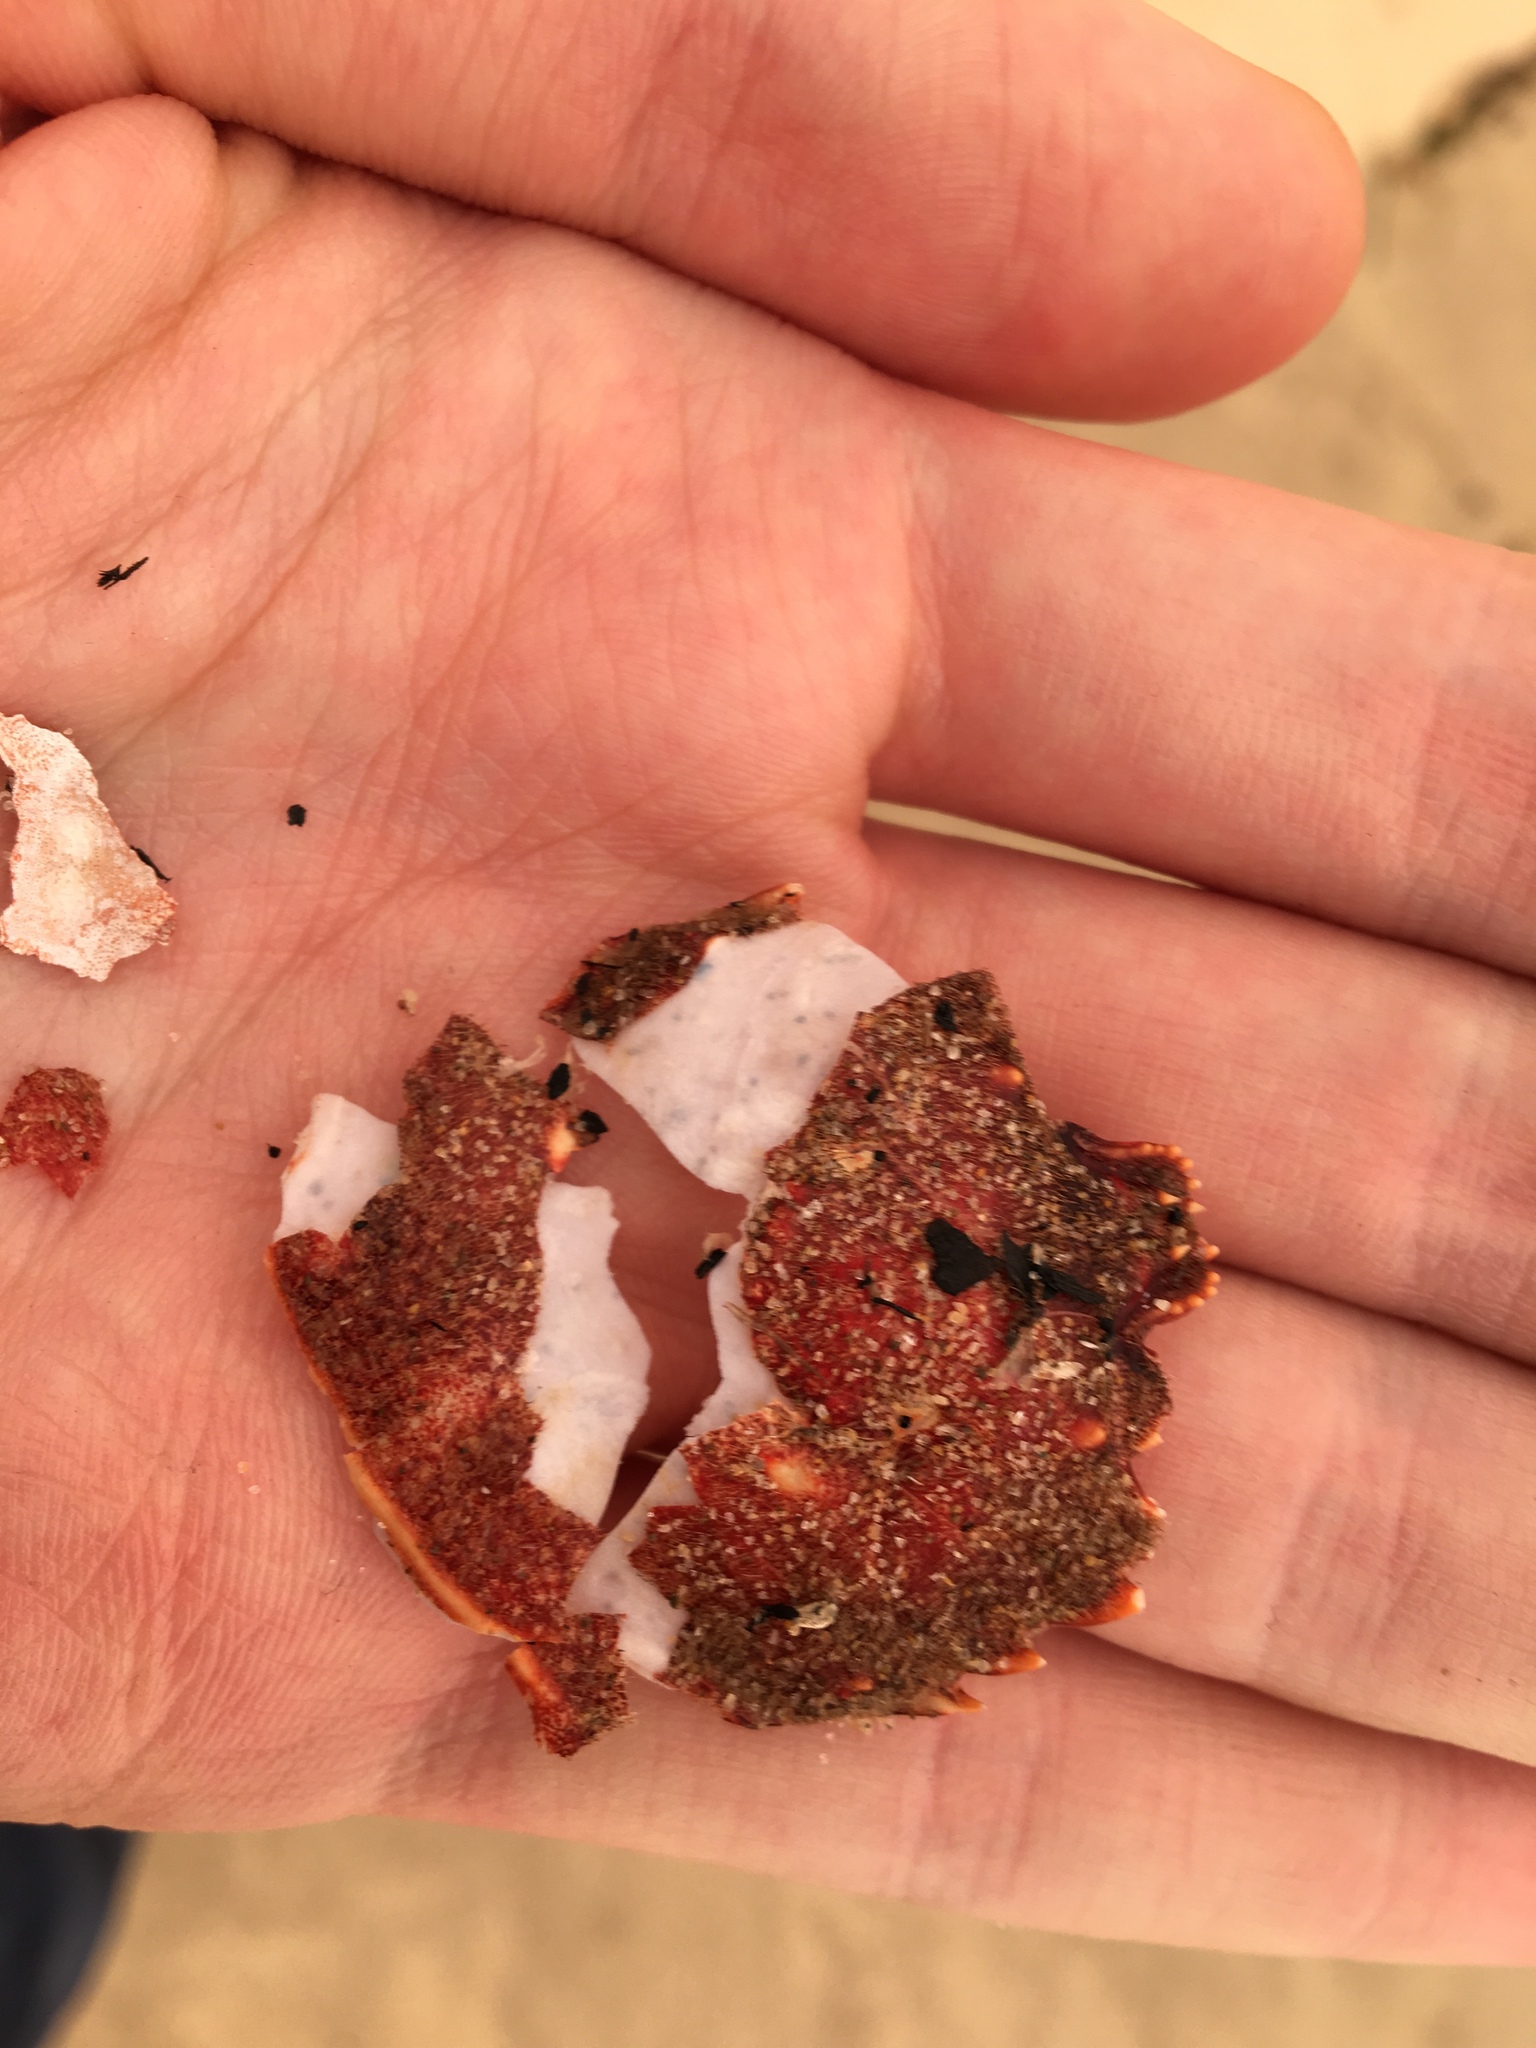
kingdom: Animalia
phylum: Arthropoda
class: Malacostraca
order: Decapoda
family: Plagusiidae
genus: Guinusia
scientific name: Guinusia chabrus
